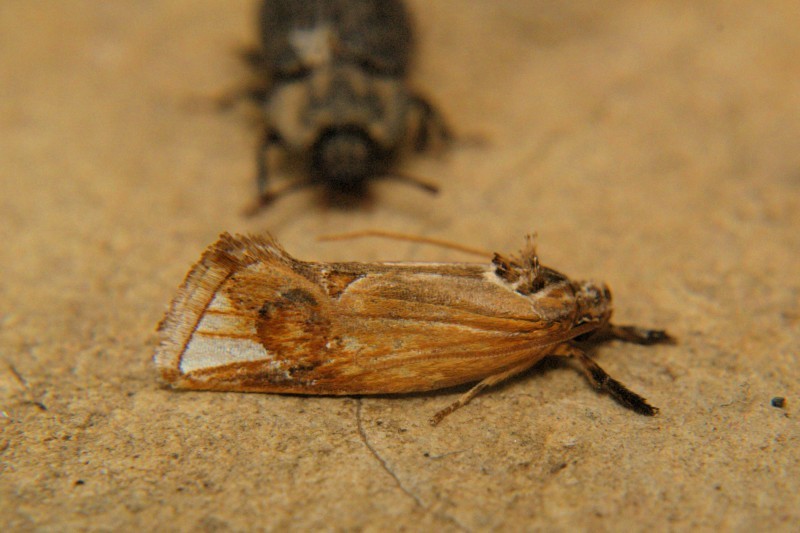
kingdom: Animalia
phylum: Arthropoda
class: Insecta
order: Lepidoptera
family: Depressariidae
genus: Aeolanthes
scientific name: Aeolanthes deltogramma
